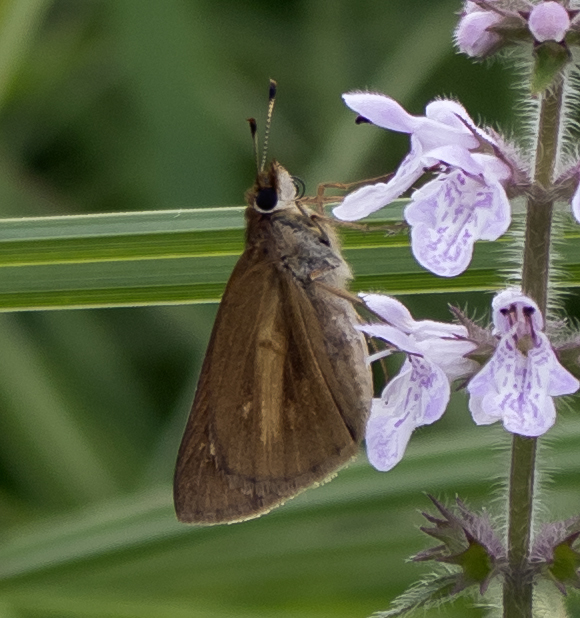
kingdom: Animalia
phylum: Arthropoda
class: Insecta
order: Lepidoptera
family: Hesperiidae
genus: Poanes
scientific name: Poanes viator
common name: Broad-winged skipper
